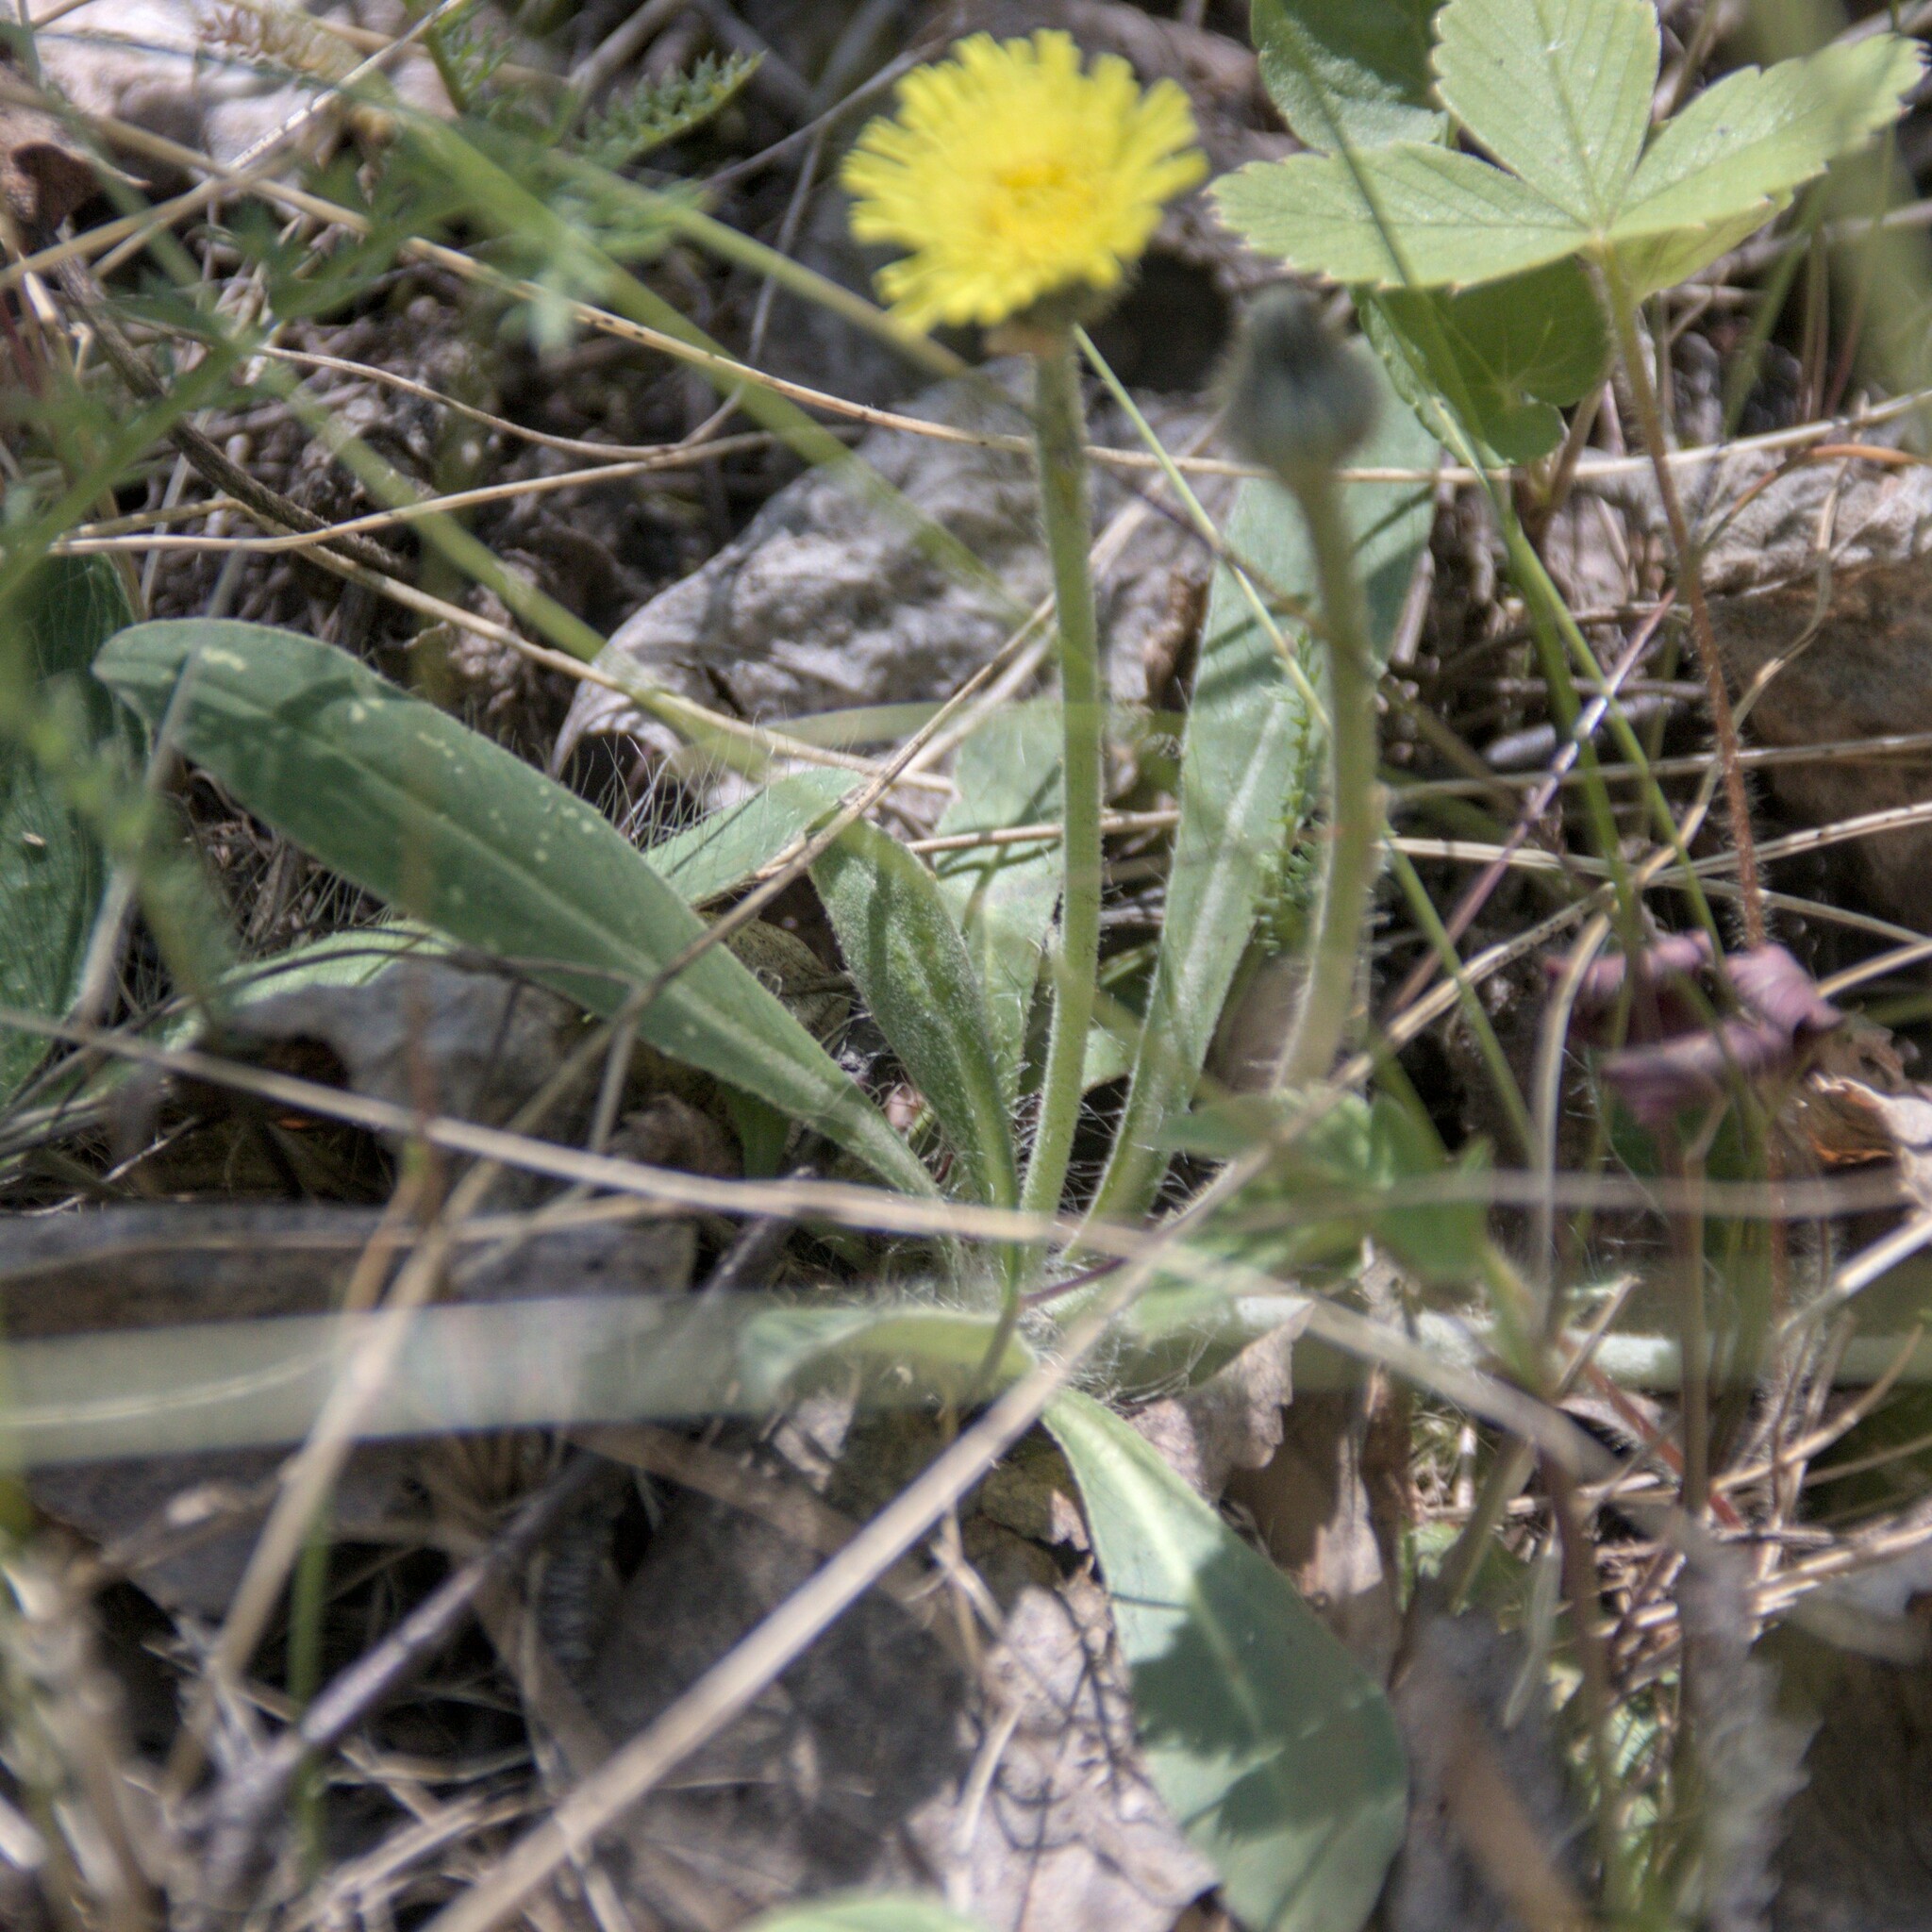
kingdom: Plantae
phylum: Tracheophyta
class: Magnoliopsida
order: Asterales
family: Asteraceae
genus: Pilosella
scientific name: Pilosella officinarum
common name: Mouse-ear hawkweed
